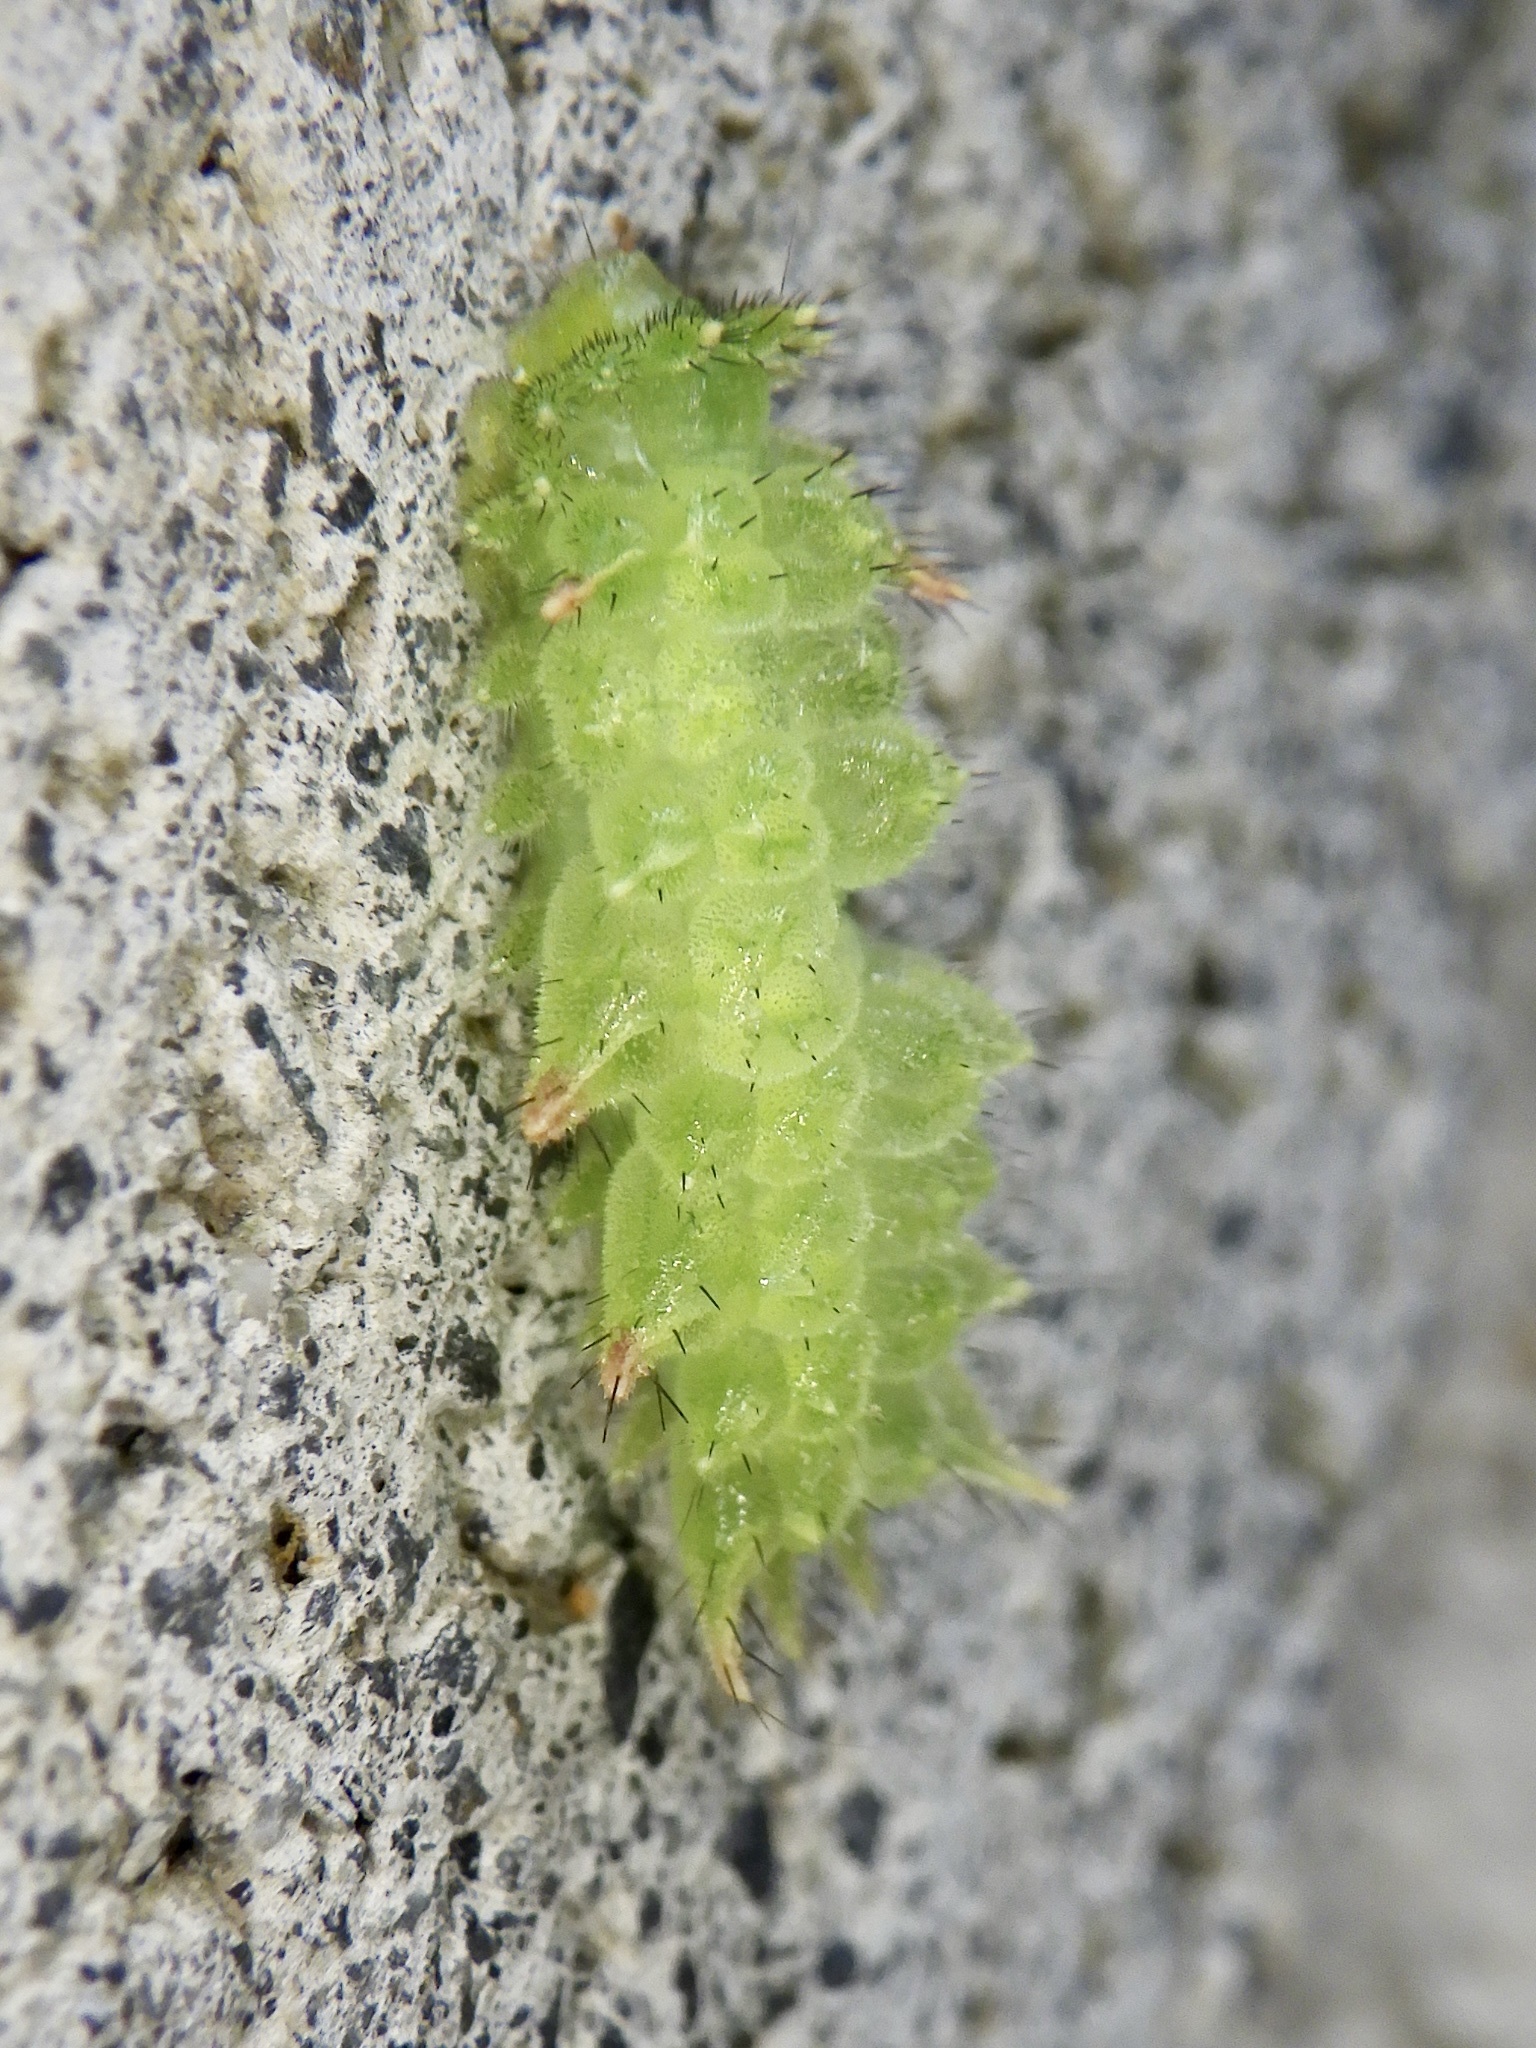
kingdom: Animalia
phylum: Arthropoda
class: Insecta
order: Lepidoptera
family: Limacodidae
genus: Phrixolepia
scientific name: Phrixolepia sericea
